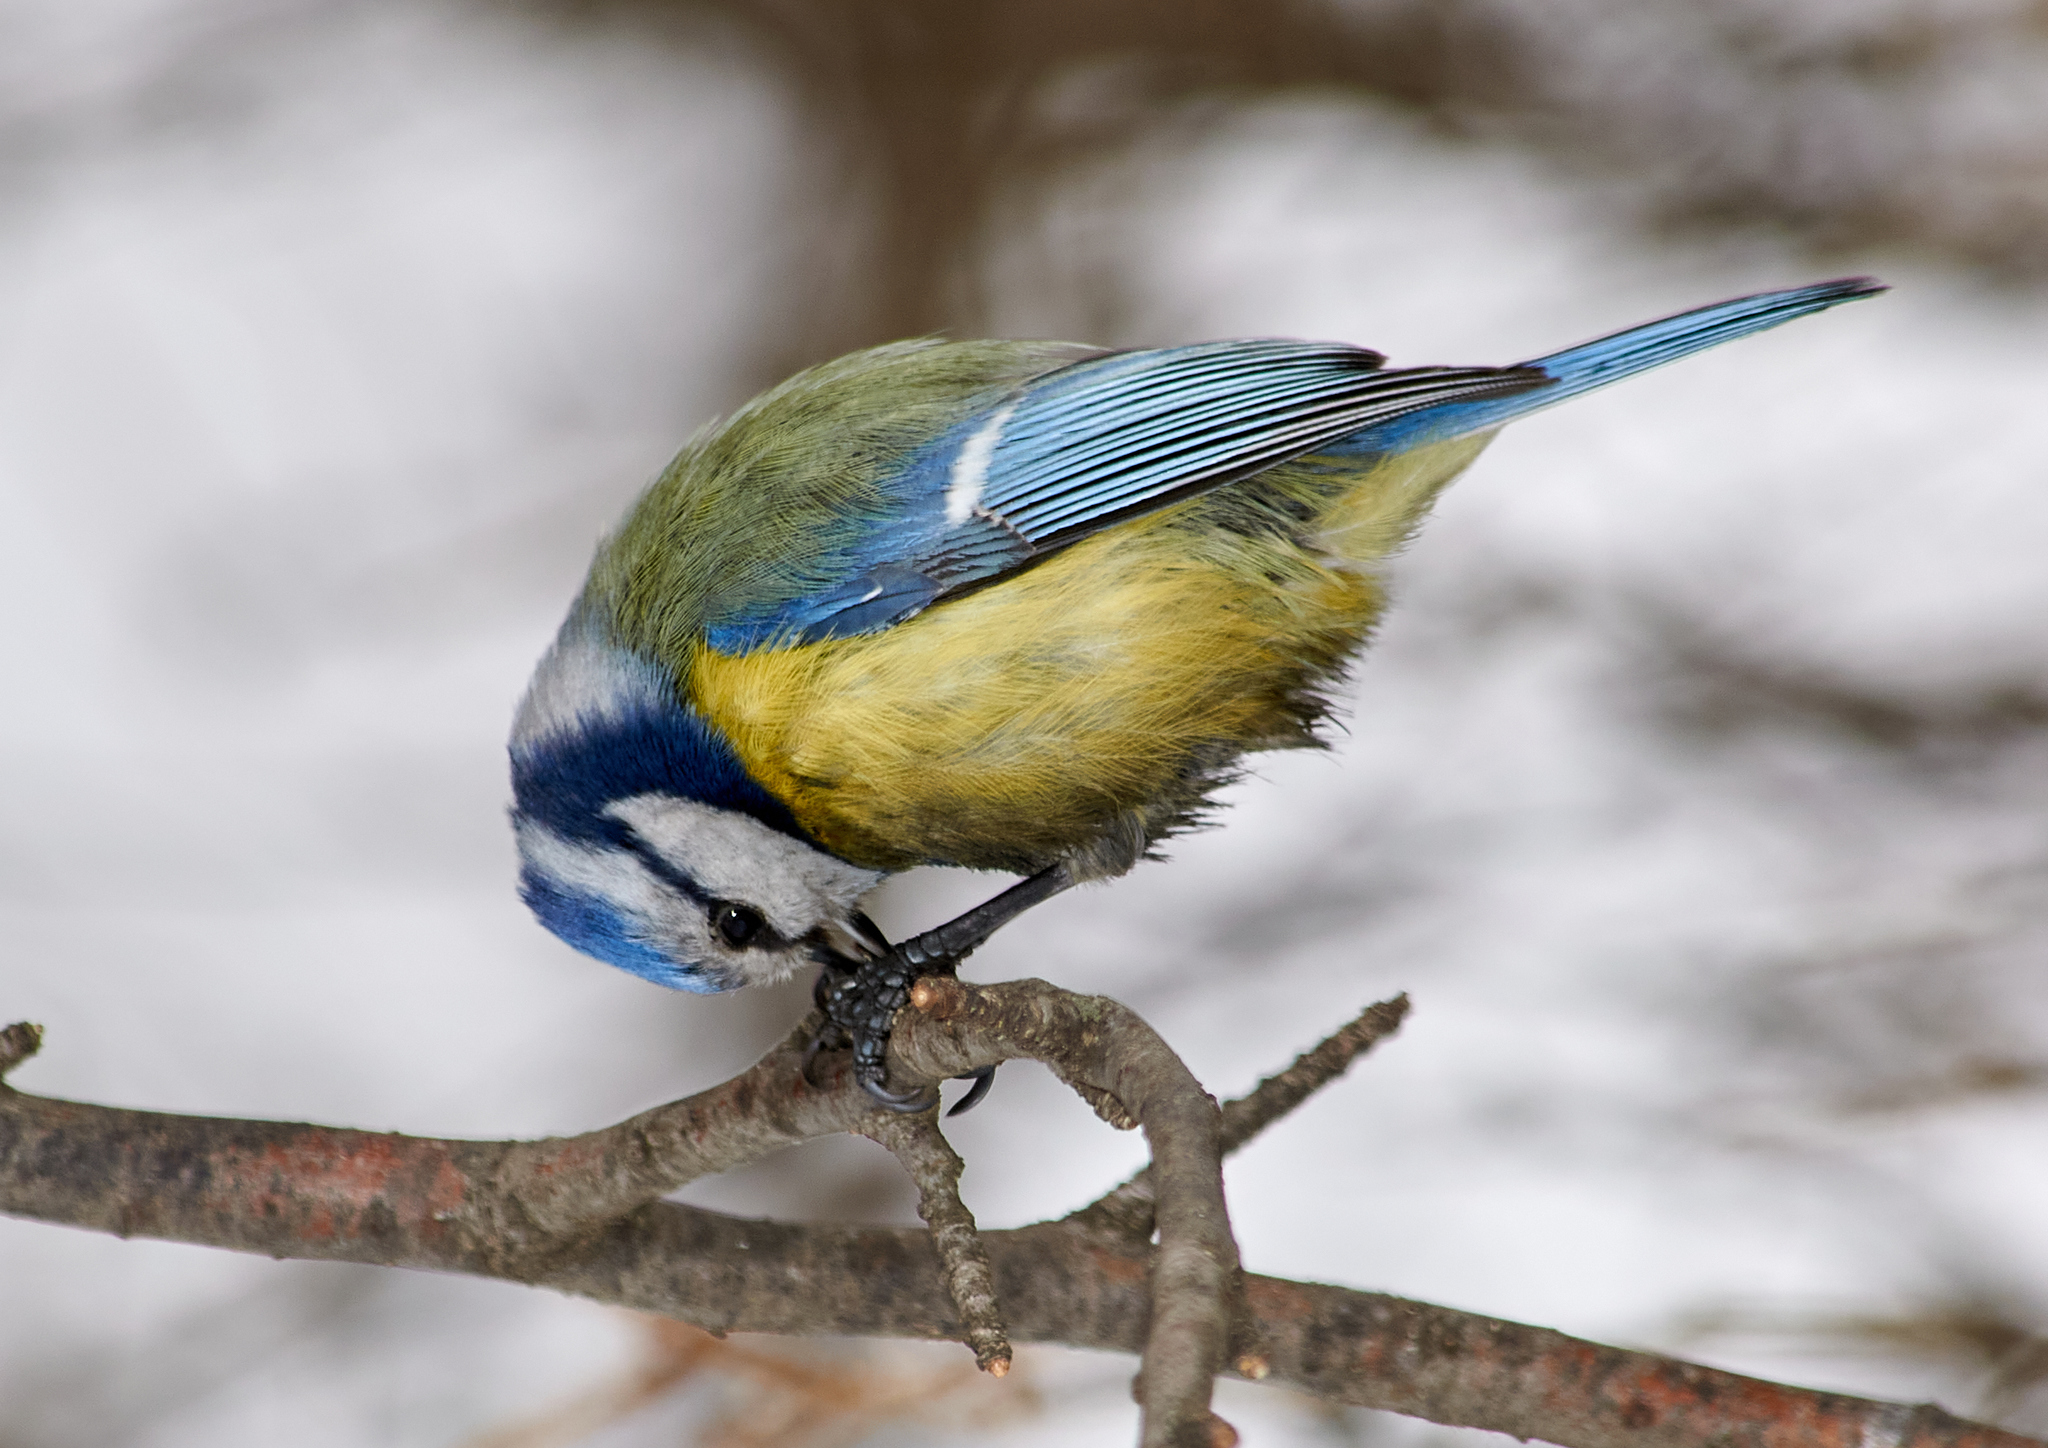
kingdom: Animalia
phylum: Chordata
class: Aves
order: Passeriformes
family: Paridae
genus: Cyanistes
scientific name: Cyanistes caeruleus
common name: Eurasian blue tit
